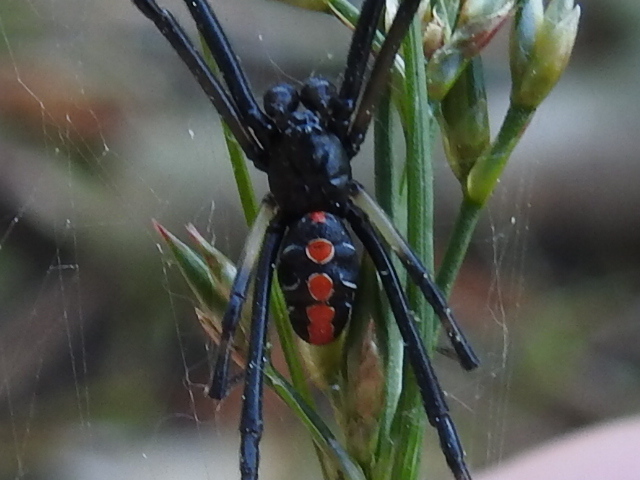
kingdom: Animalia
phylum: Arthropoda
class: Arachnida
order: Araneae
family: Theridiidae
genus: Latrodectus
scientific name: Latrodectus mactans
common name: Cobweb spiders
